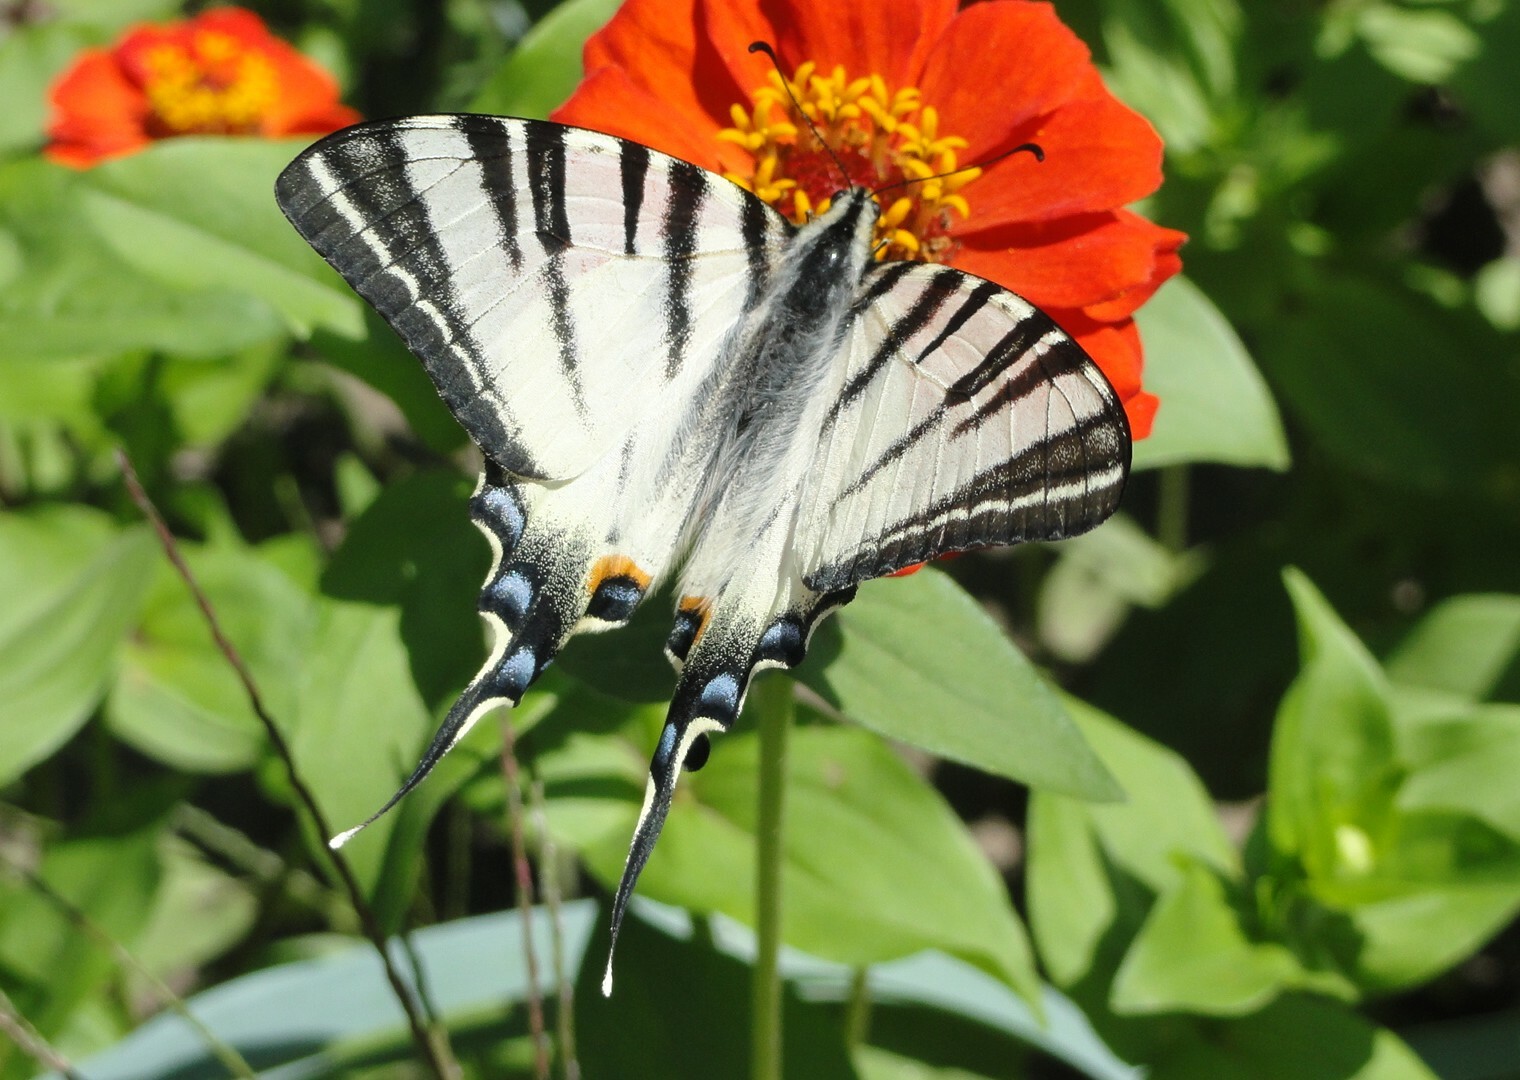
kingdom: Animalia
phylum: Arthropoda
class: Insecta
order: Lepidoptera
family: Papilionidae
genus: Iphiclides
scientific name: Iphiclides podalirius
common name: Scarce swallowtail
